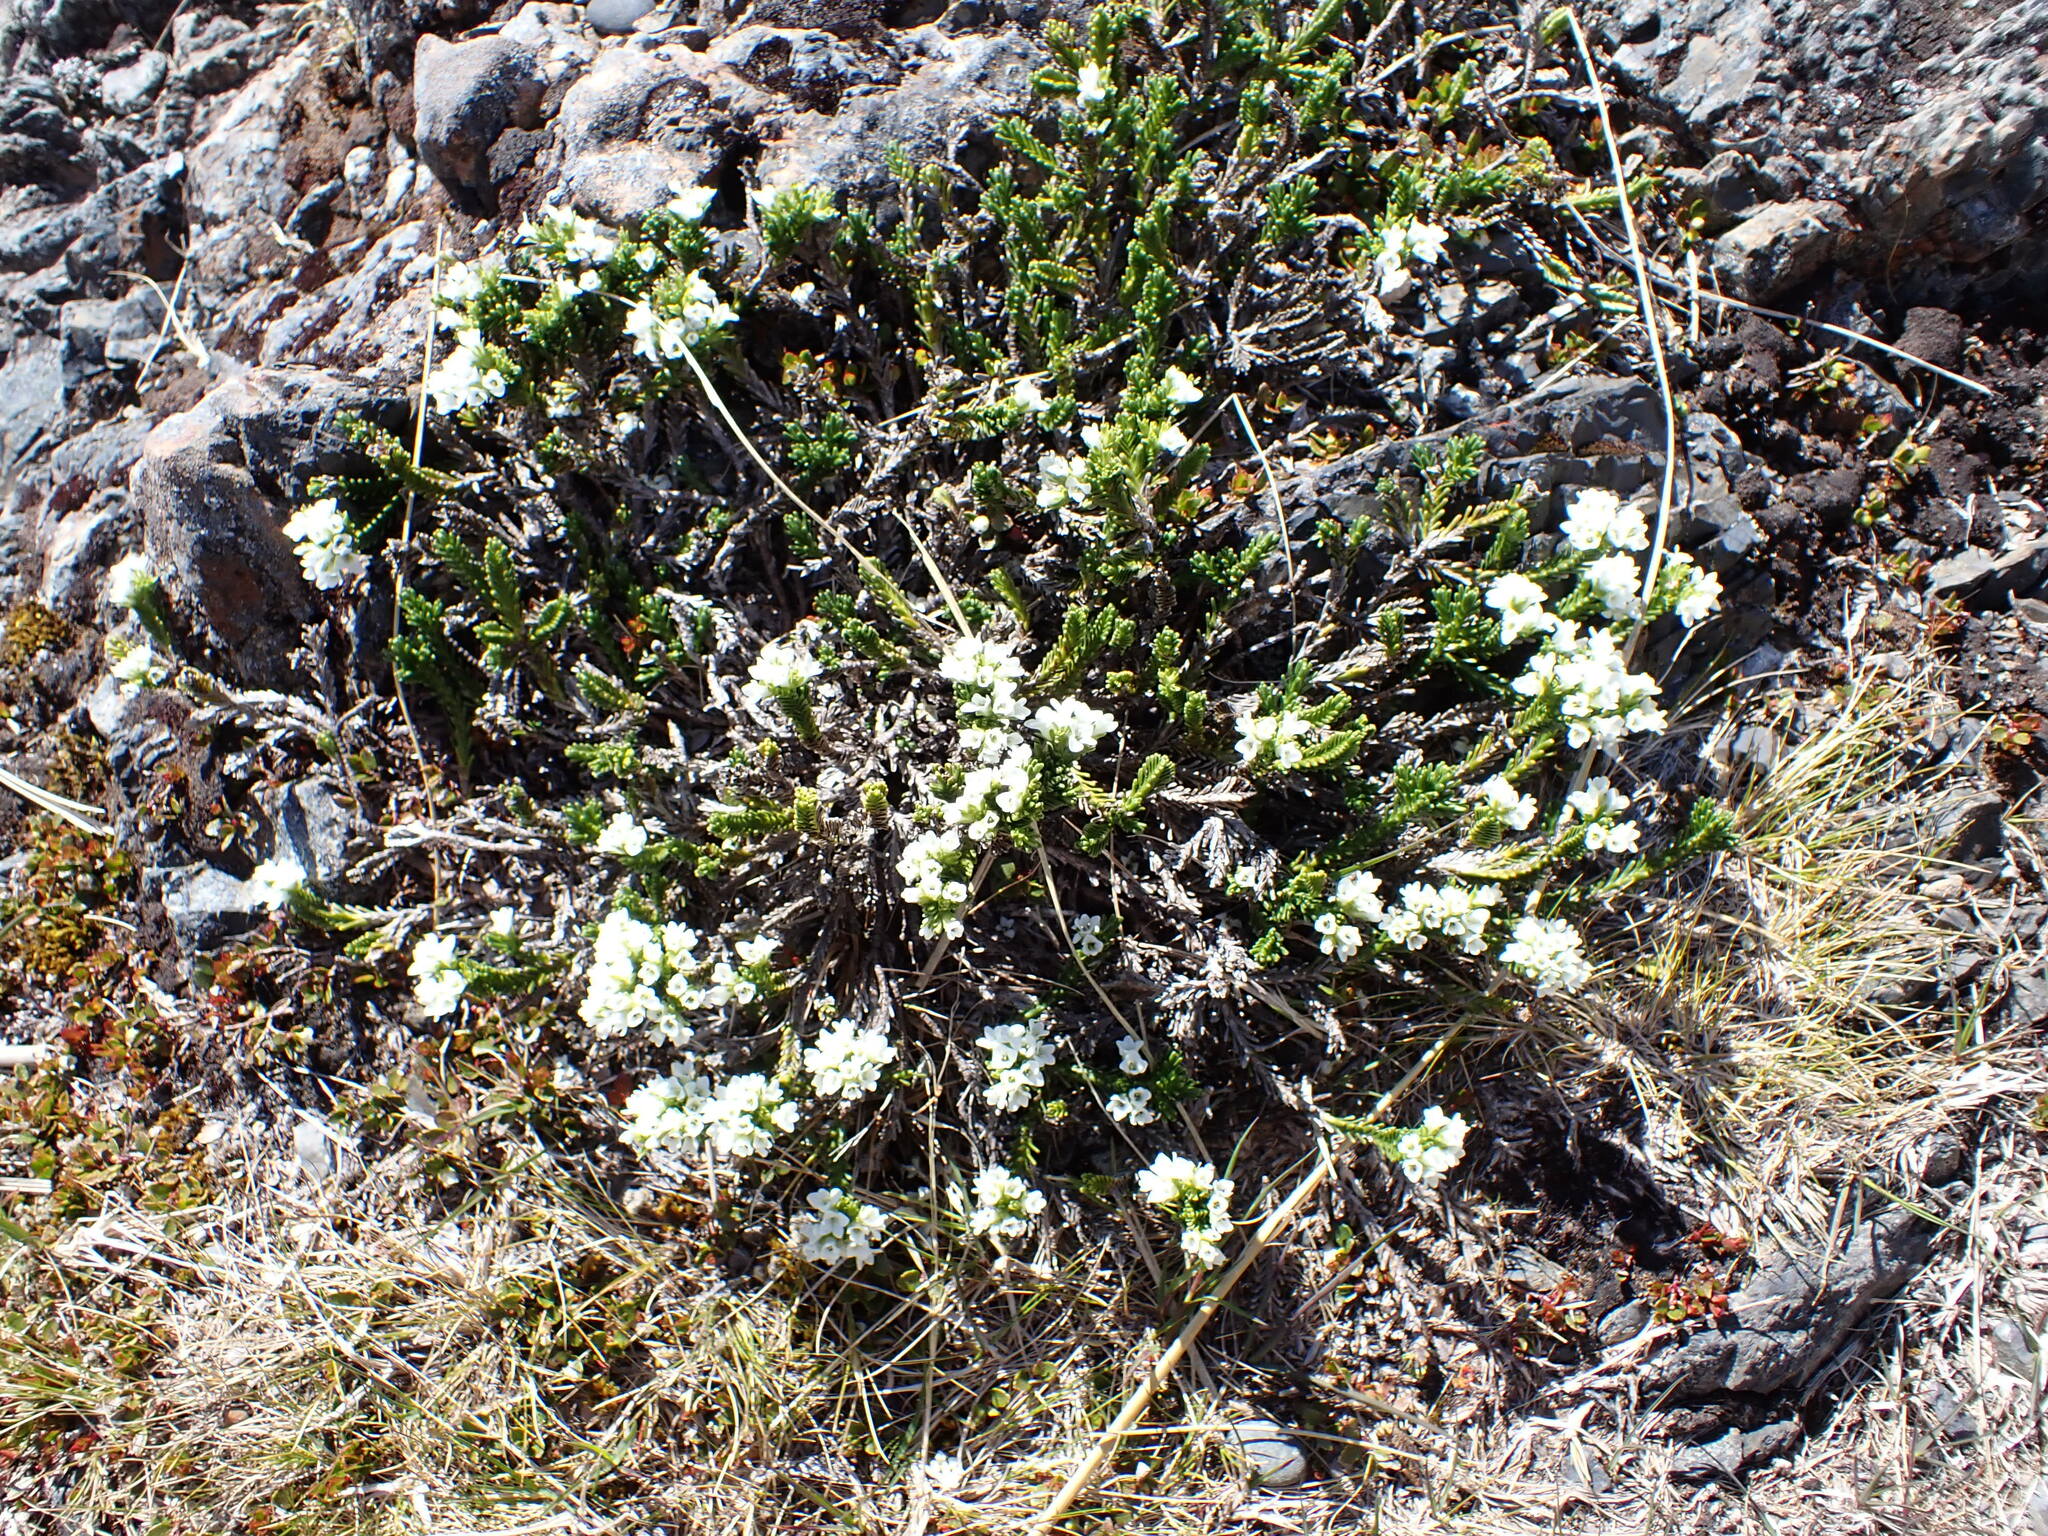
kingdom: Plantae
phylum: Tracheophyta
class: Magnoliopsida
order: Lamiales
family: Plantaginaceae
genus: Veronica
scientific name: Veronica hookeri
